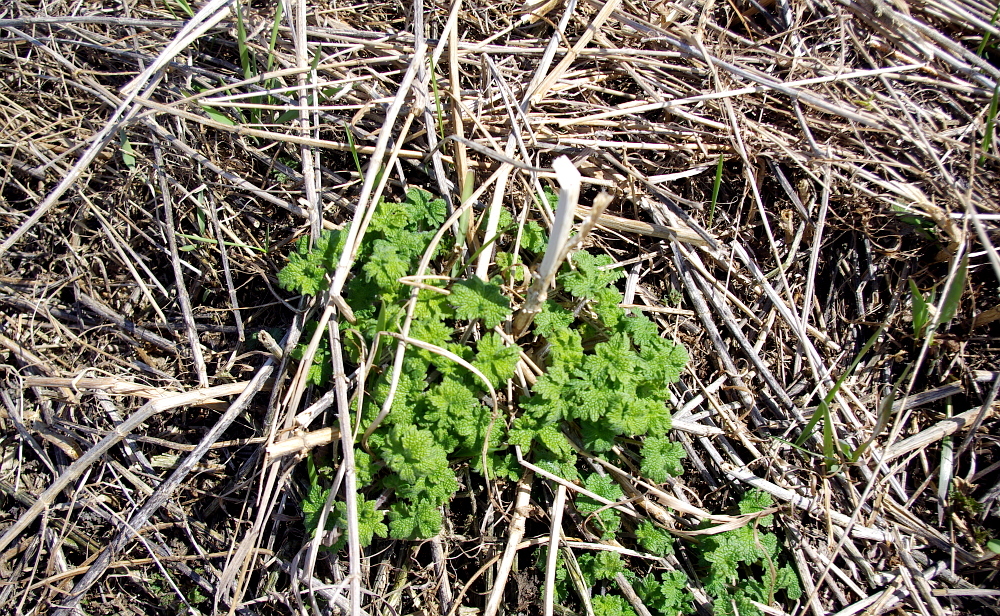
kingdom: Plantae
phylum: Tracheophyta
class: Magnoliopsida
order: Lamiales
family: Lamiaceae
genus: Leonurus
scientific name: Leonurus quinquelobatus
